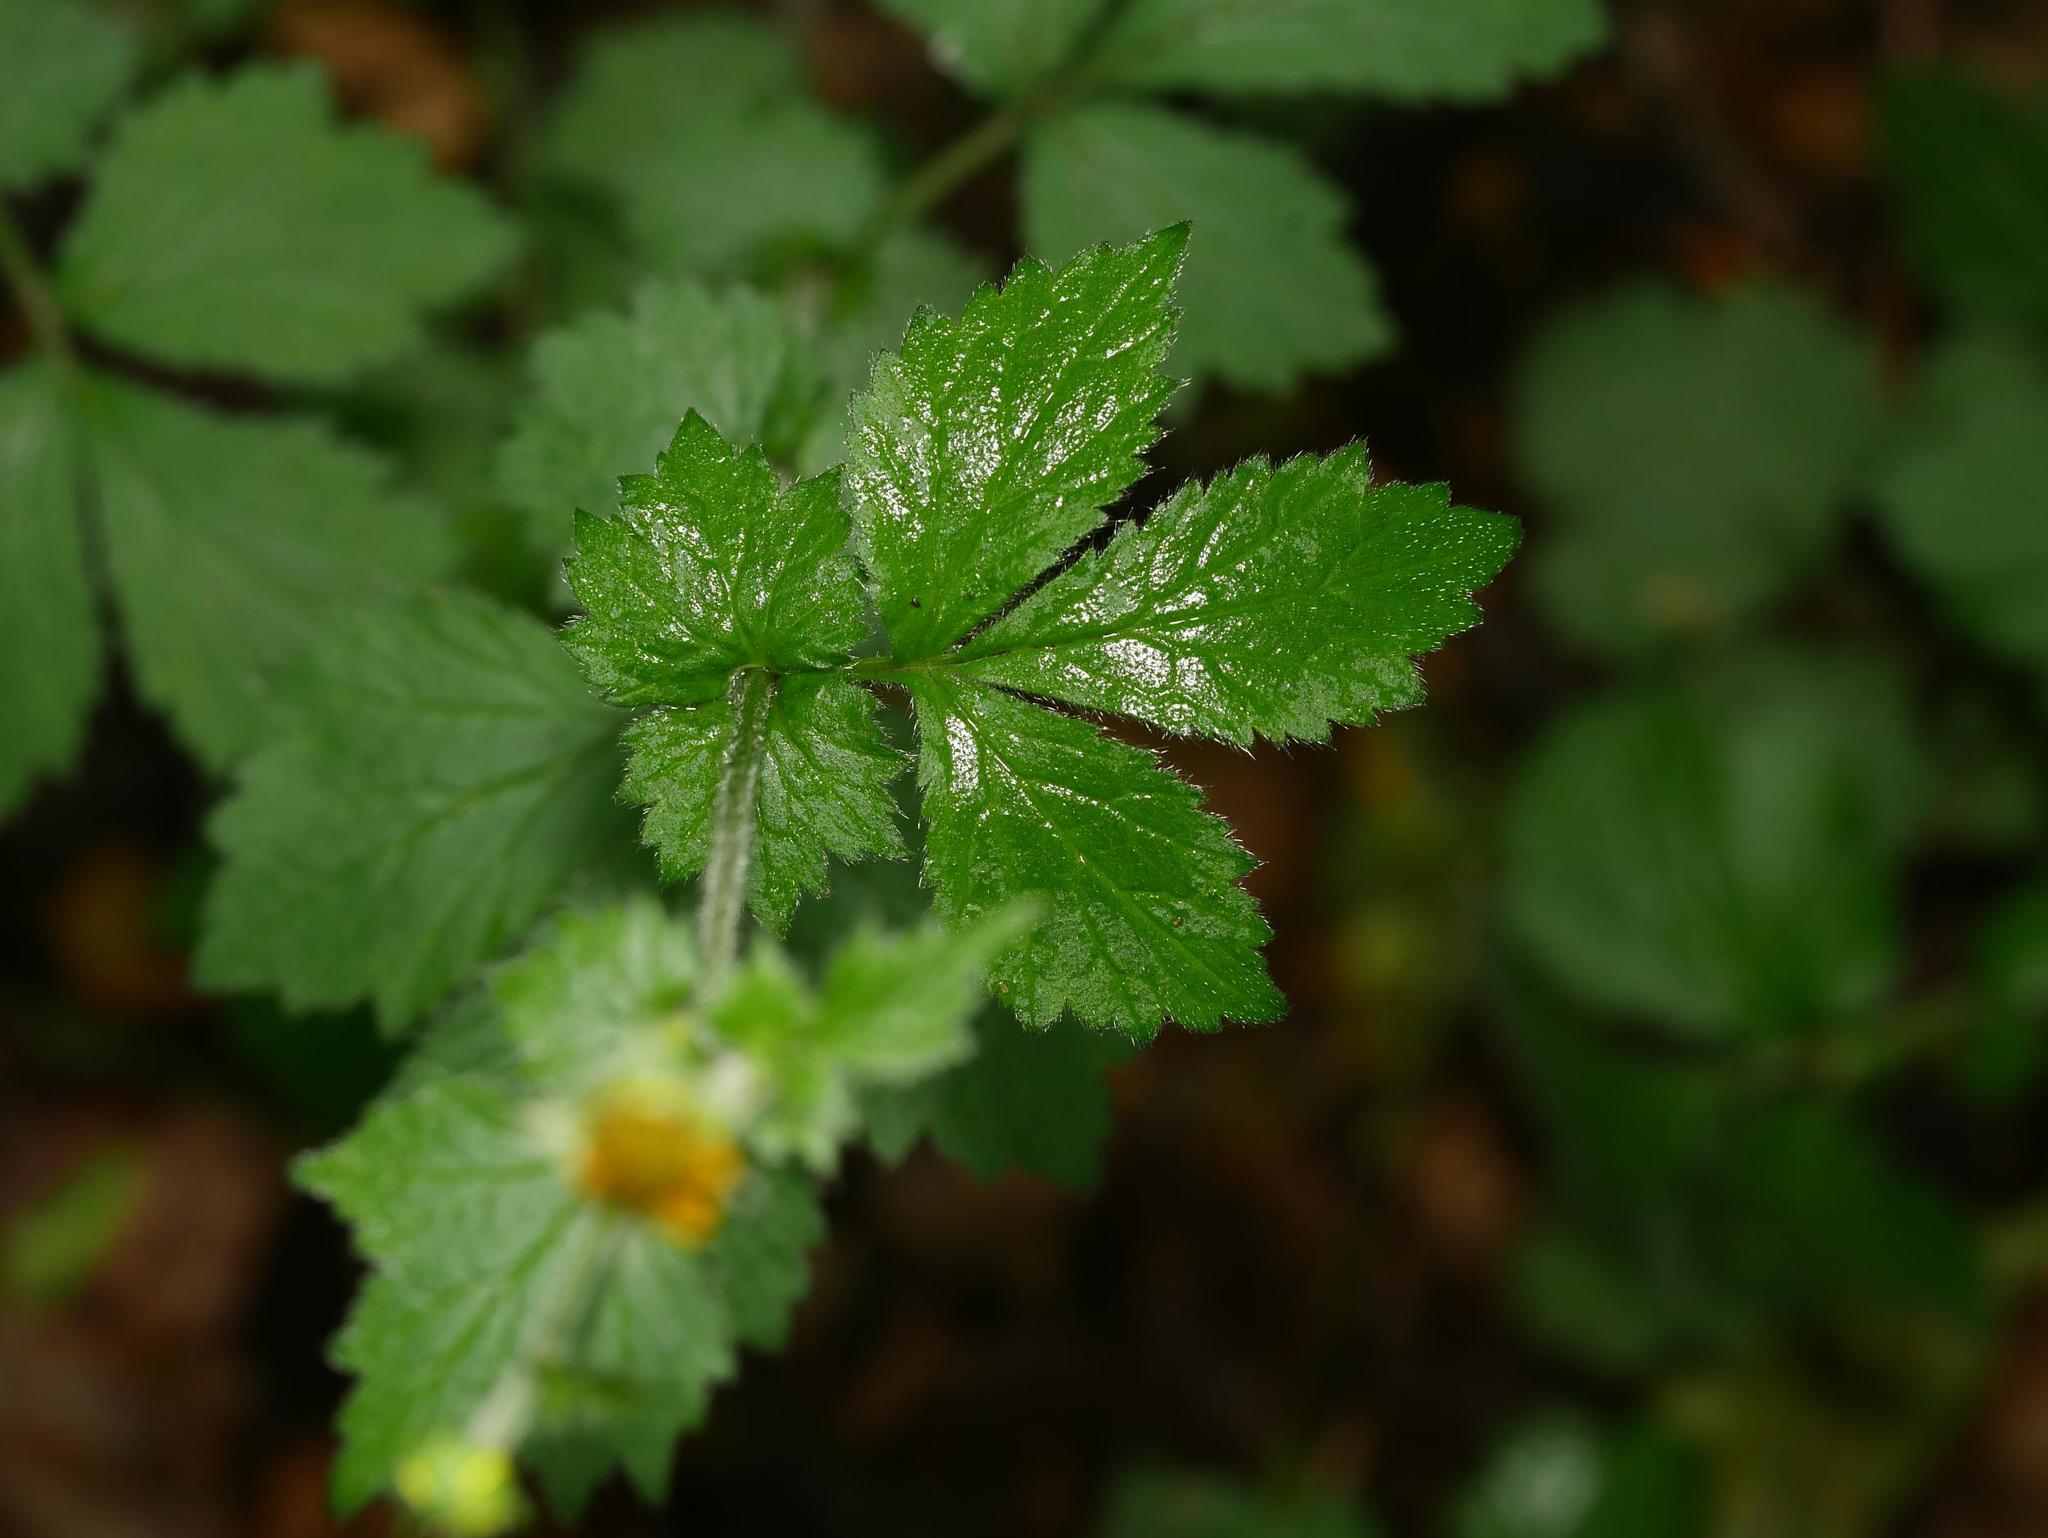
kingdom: Plantae
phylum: Tracheophyta
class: Magnoliopsida
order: Rosales
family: Rosaceae
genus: Geum
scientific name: Geum urbanum
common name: Wood avens
